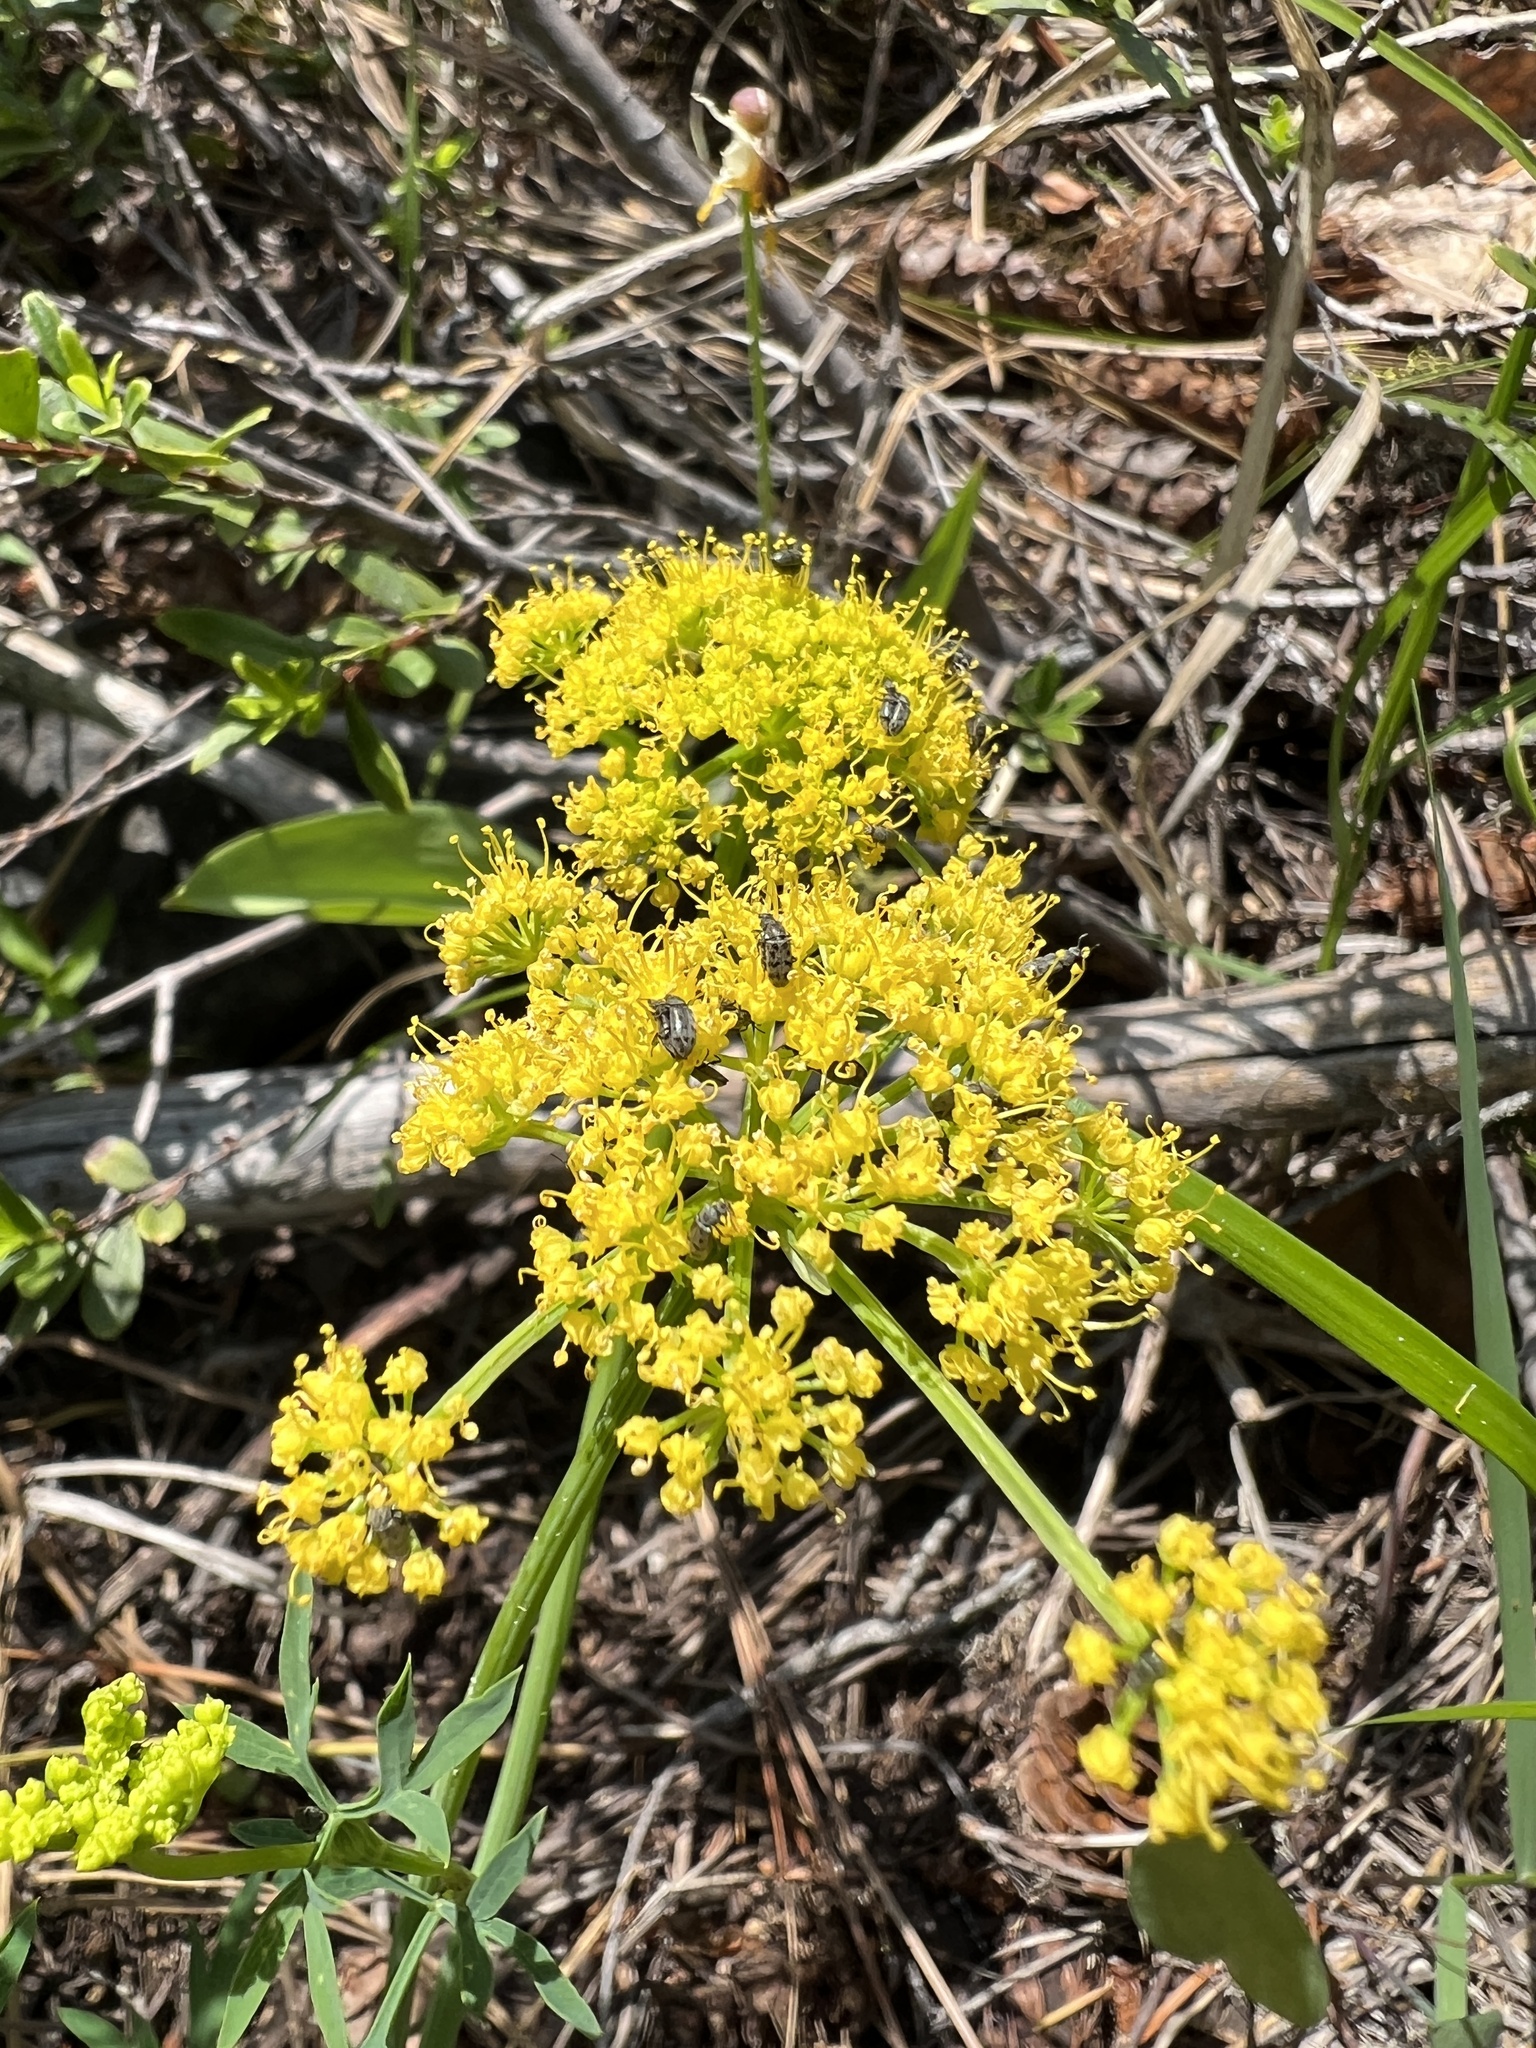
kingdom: Plantae
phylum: Tracheophyta
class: Magnoliopsida
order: Apiales
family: Apiaceae
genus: Lomatium
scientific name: Lomatium brandegeei
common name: Brandegee's desert-parsley
